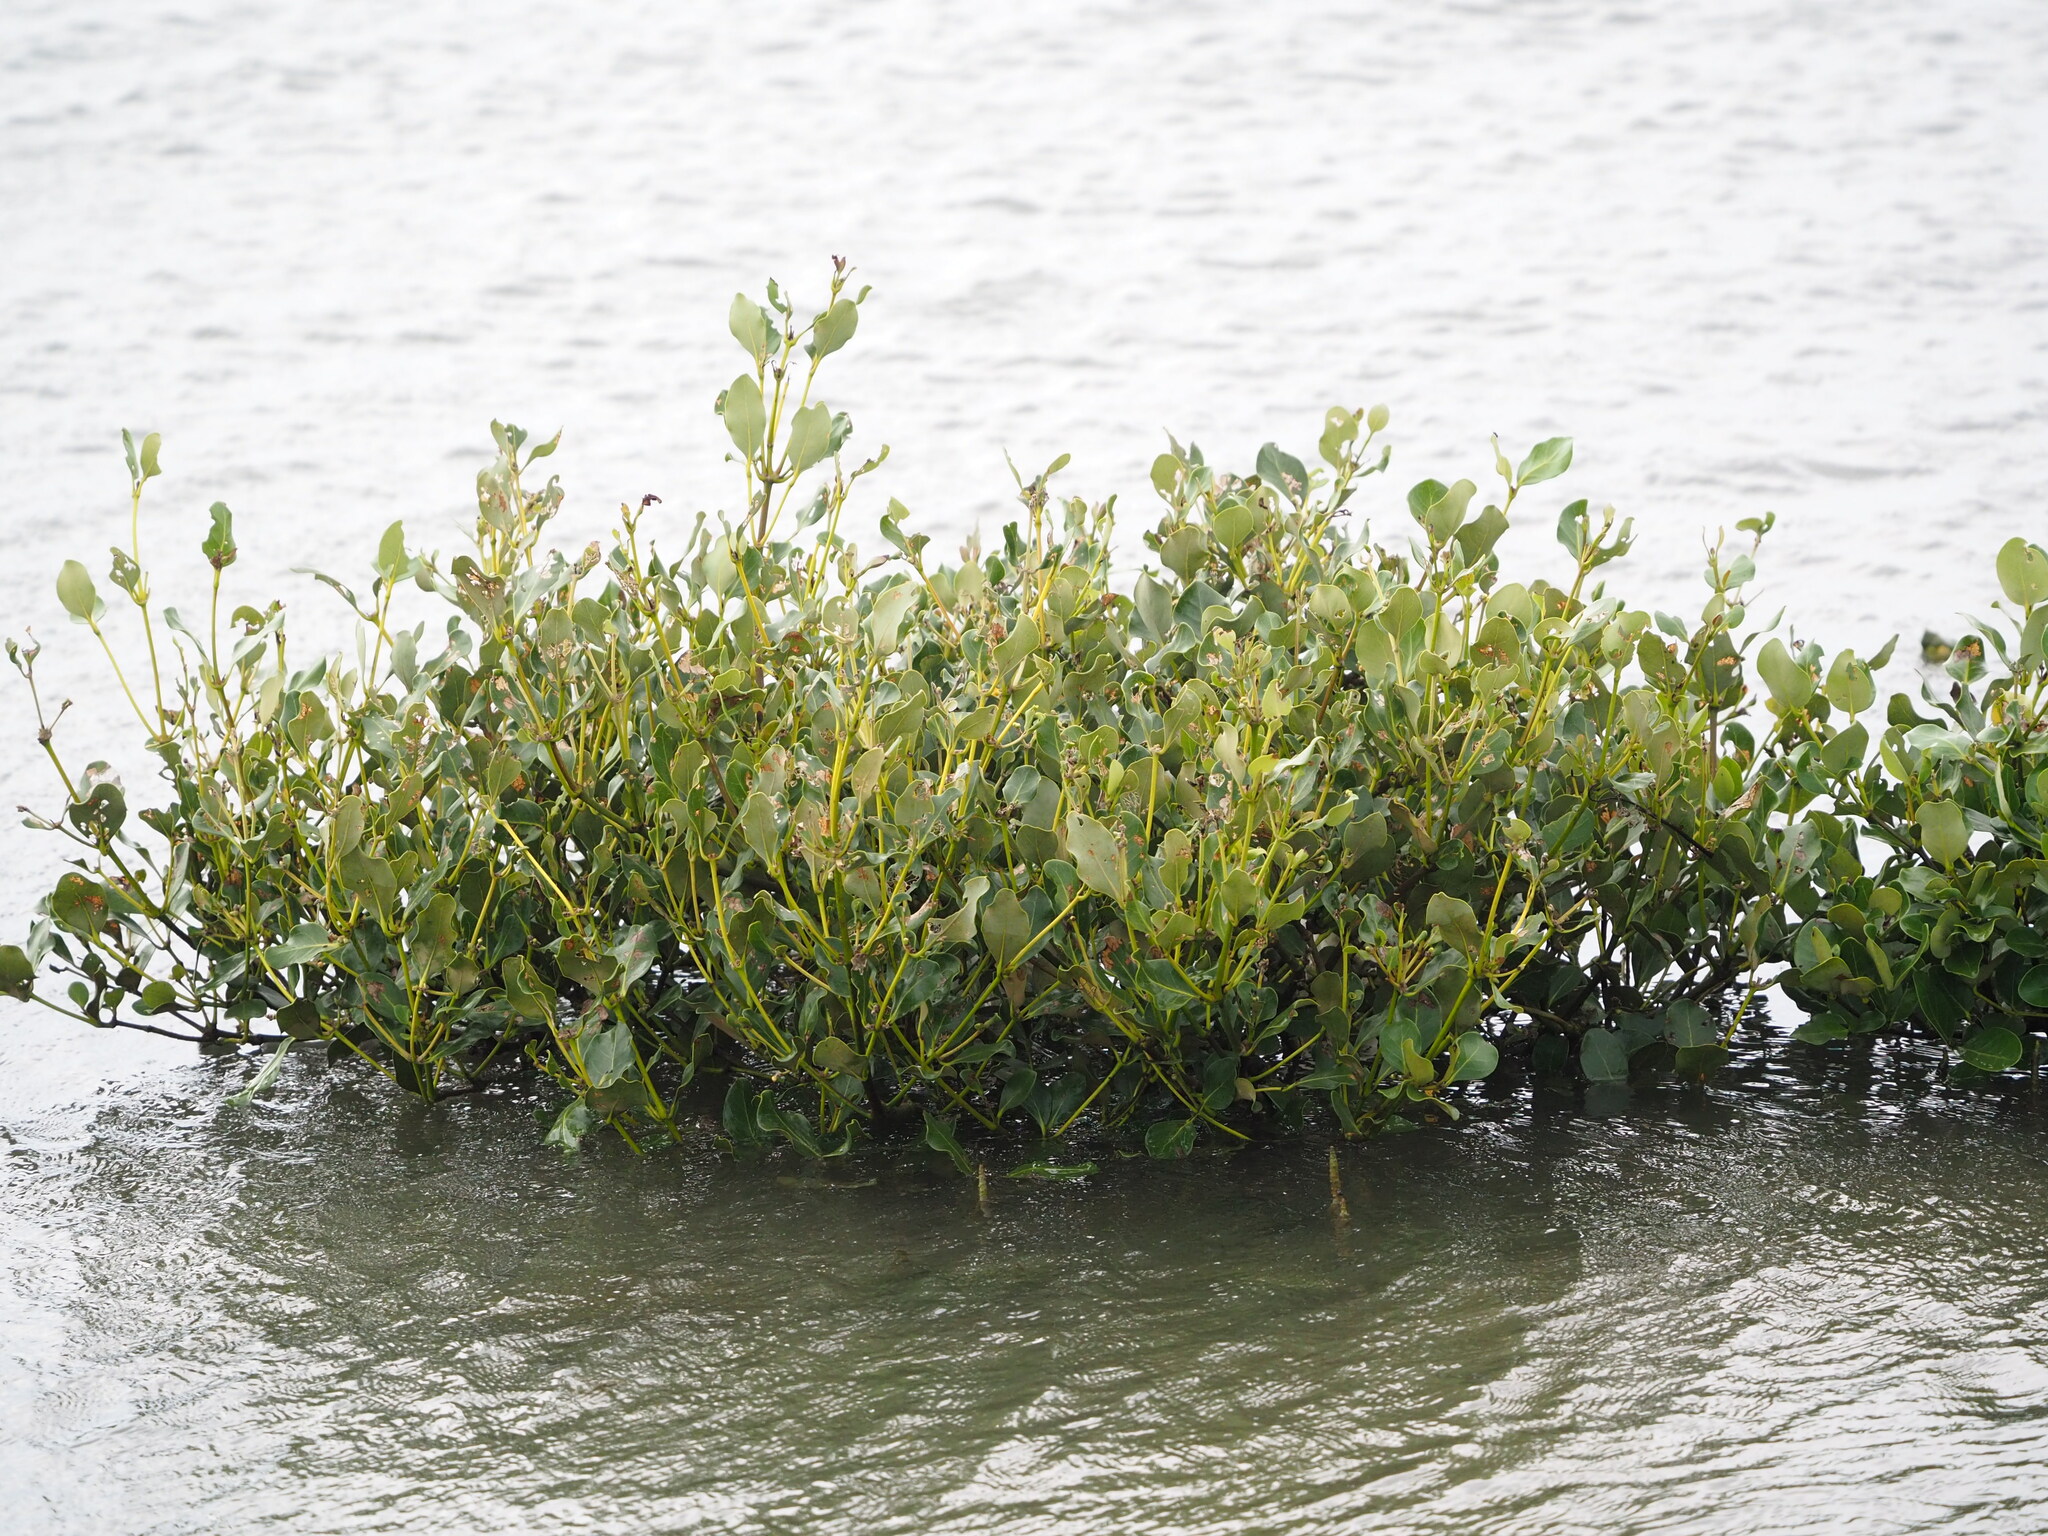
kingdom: Plantae
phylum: Tracheophyta
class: Magnoliopsida
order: Lamiales
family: Acanthaceae
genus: Avicennia
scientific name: Avicennia marina
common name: Gray mangrove
